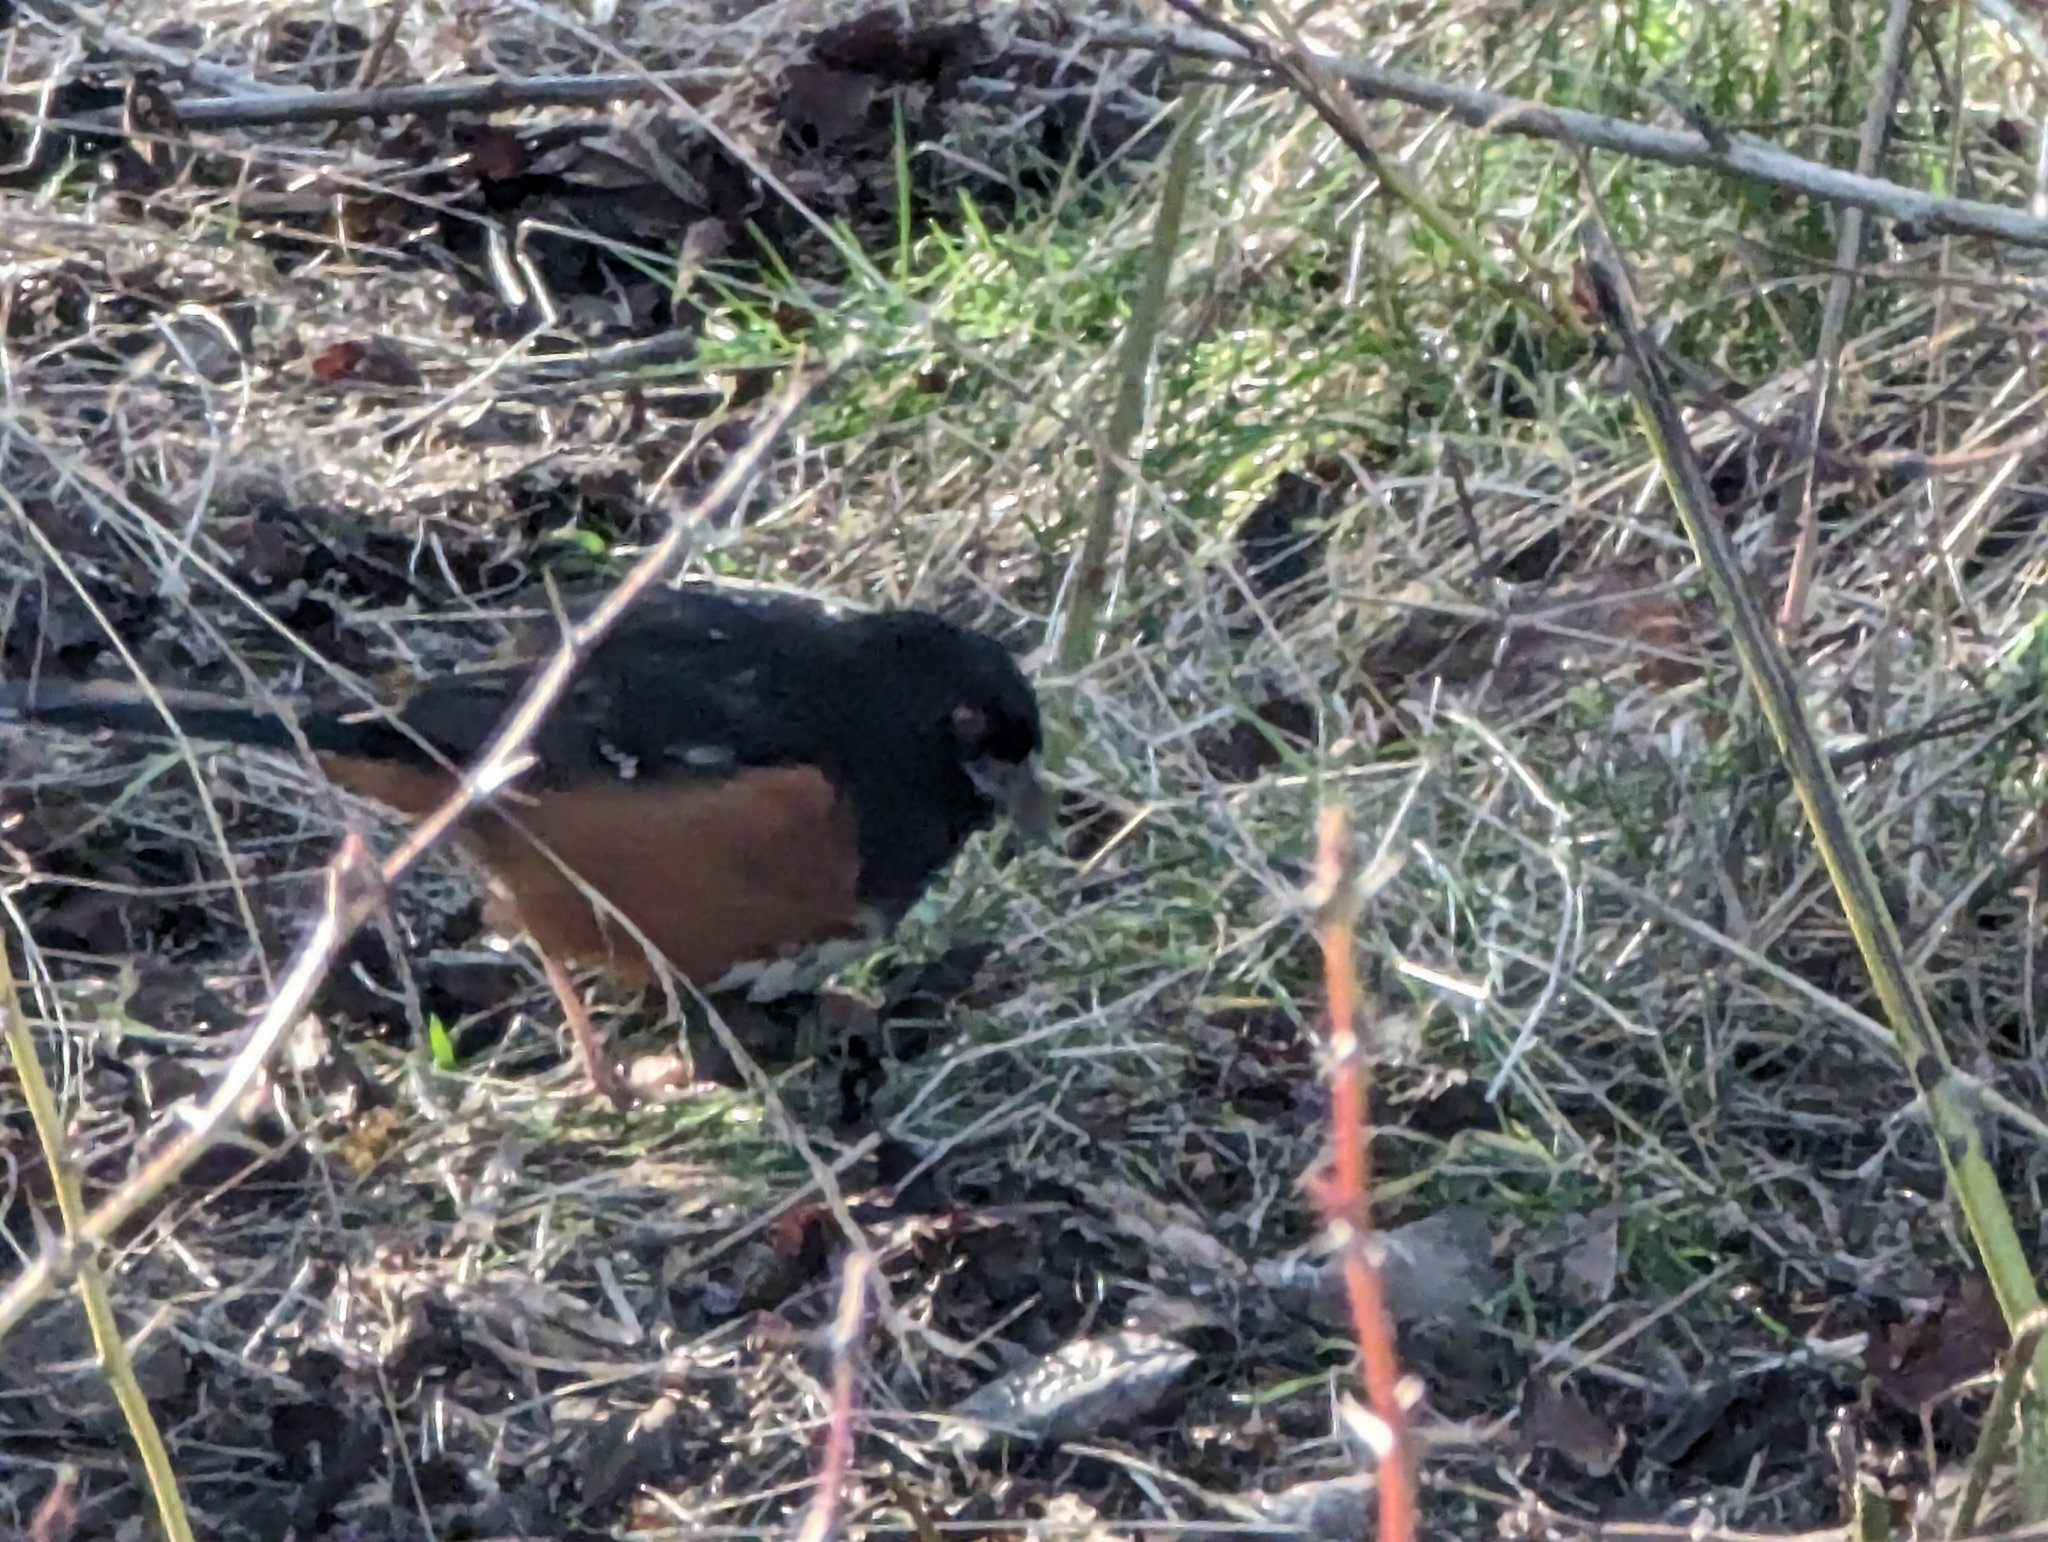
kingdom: Animalia
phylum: Chordata
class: Aves
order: Passeriformes
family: Passerellidae
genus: Pipilo
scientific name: Pipilo maculatus
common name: Spotted towhee
